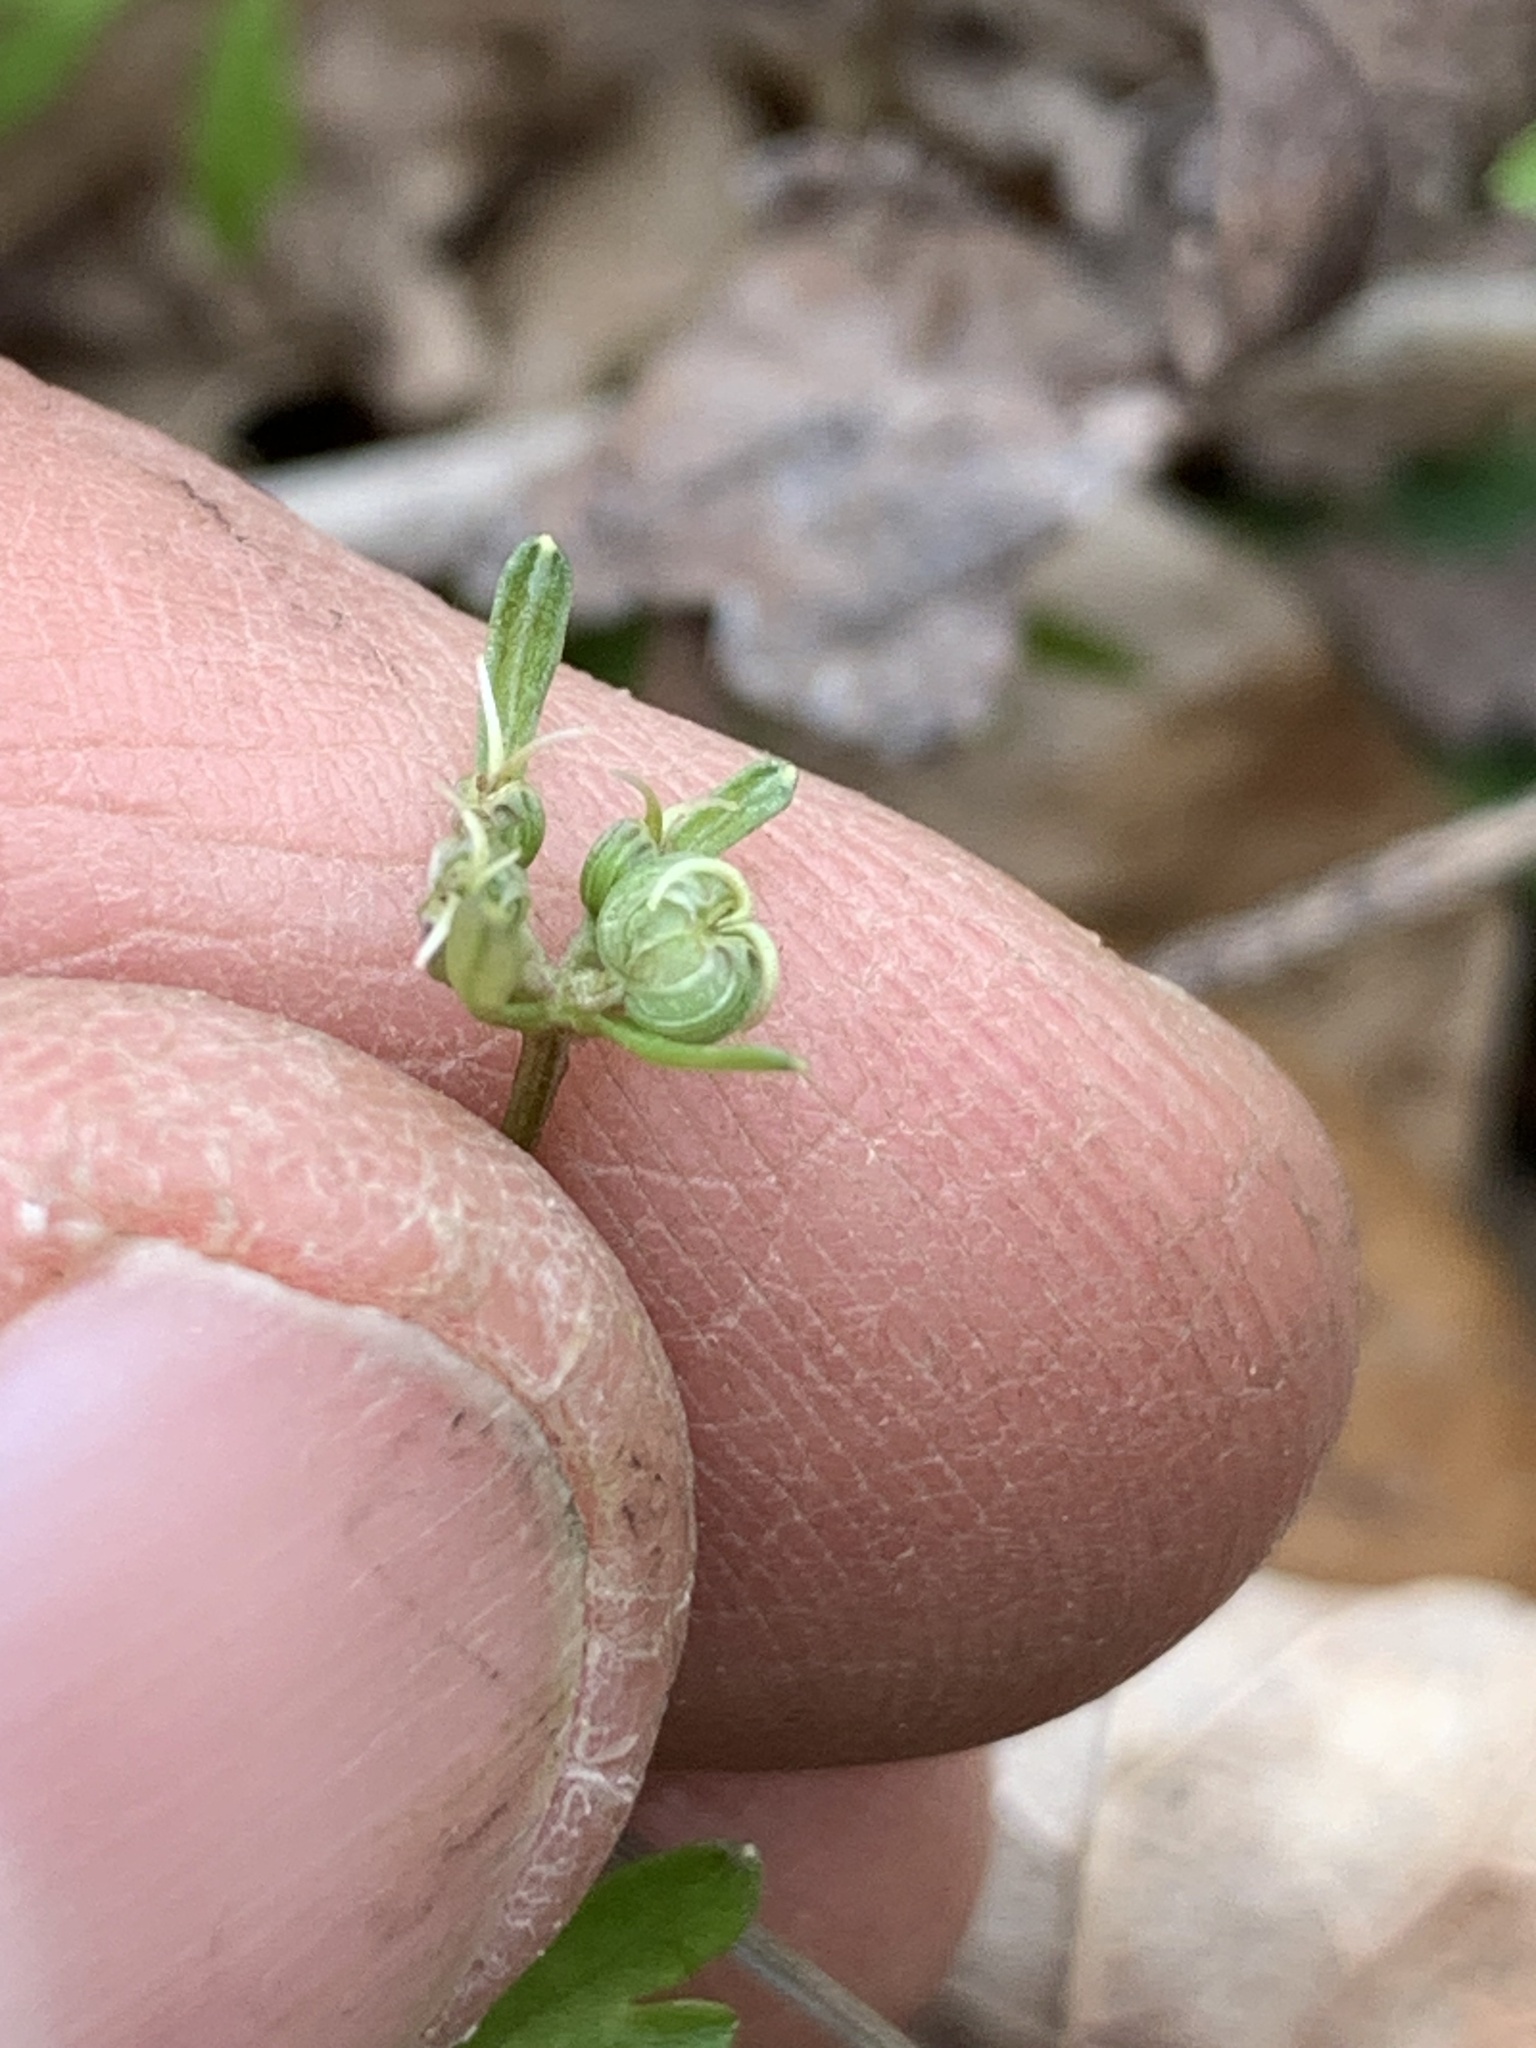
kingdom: Plantae
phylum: Tracheophyta
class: Magnoliopsida
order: Apiales
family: Apiaceae
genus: Erigenia
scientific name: Erigenia bulbosa
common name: Pepper-and-salt
